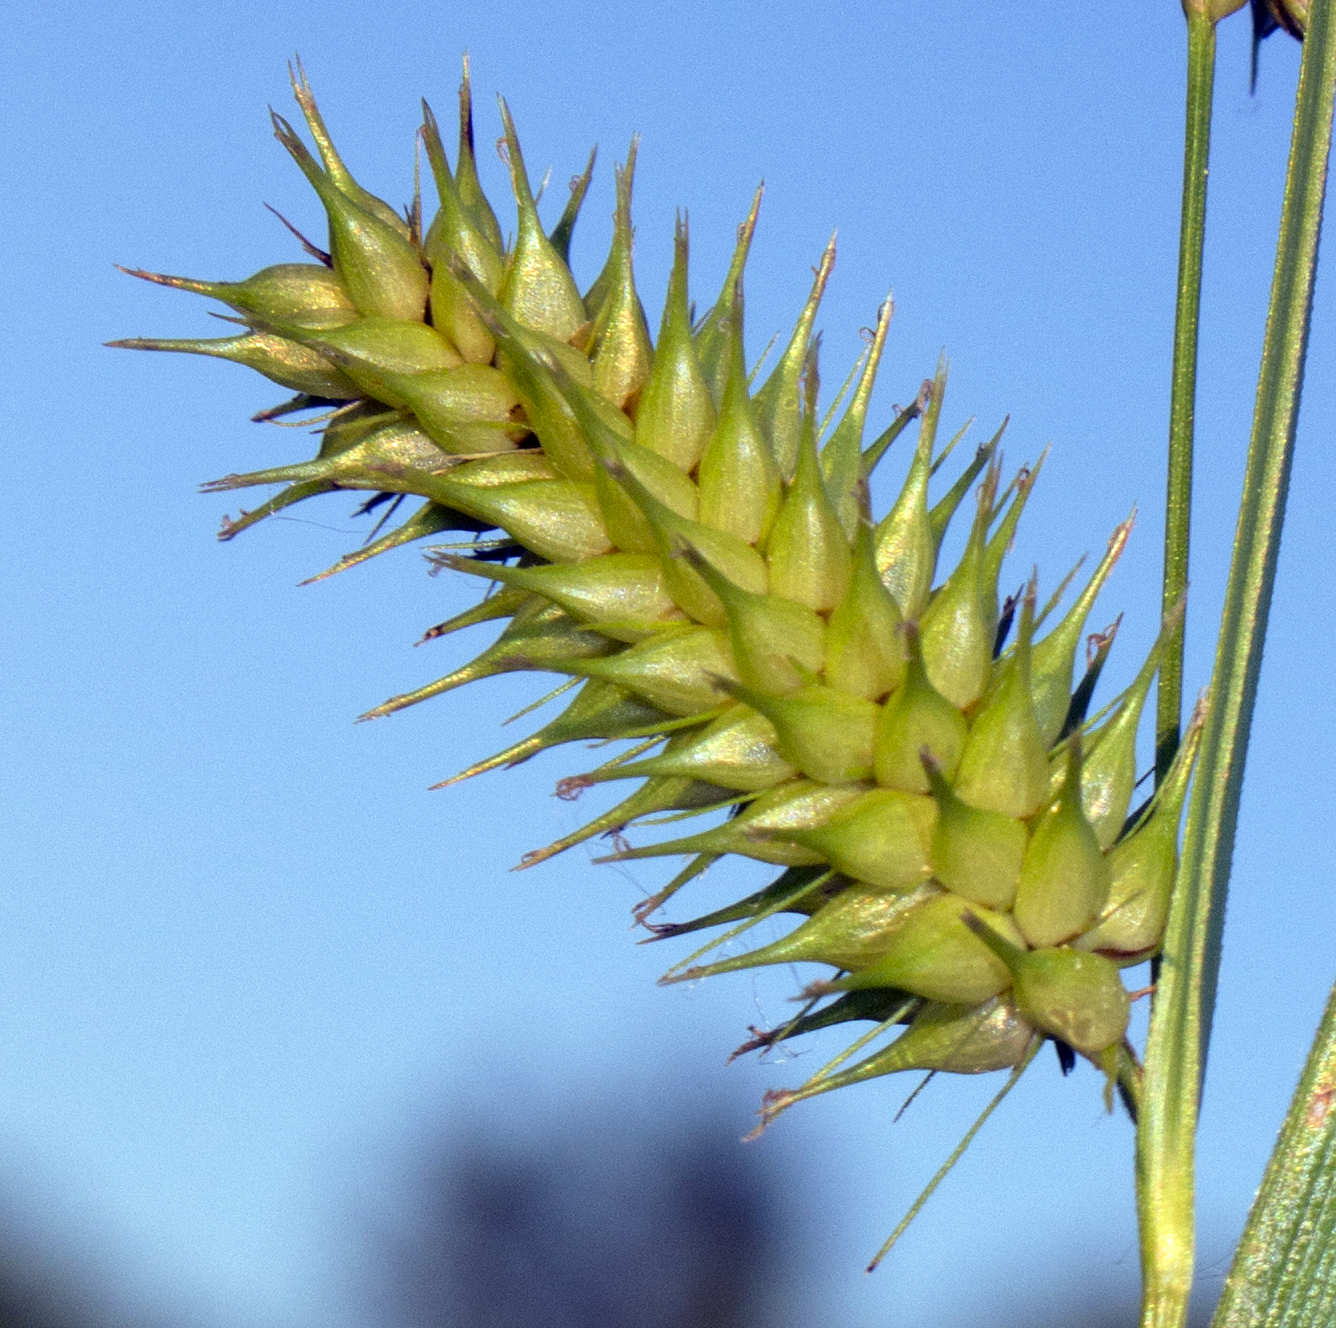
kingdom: Plantae
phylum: Tracheophyta
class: Liliopsida
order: Poales
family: Cyperaceae
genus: Carex
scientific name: Carex hystericina
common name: Bottlebrush sedge
